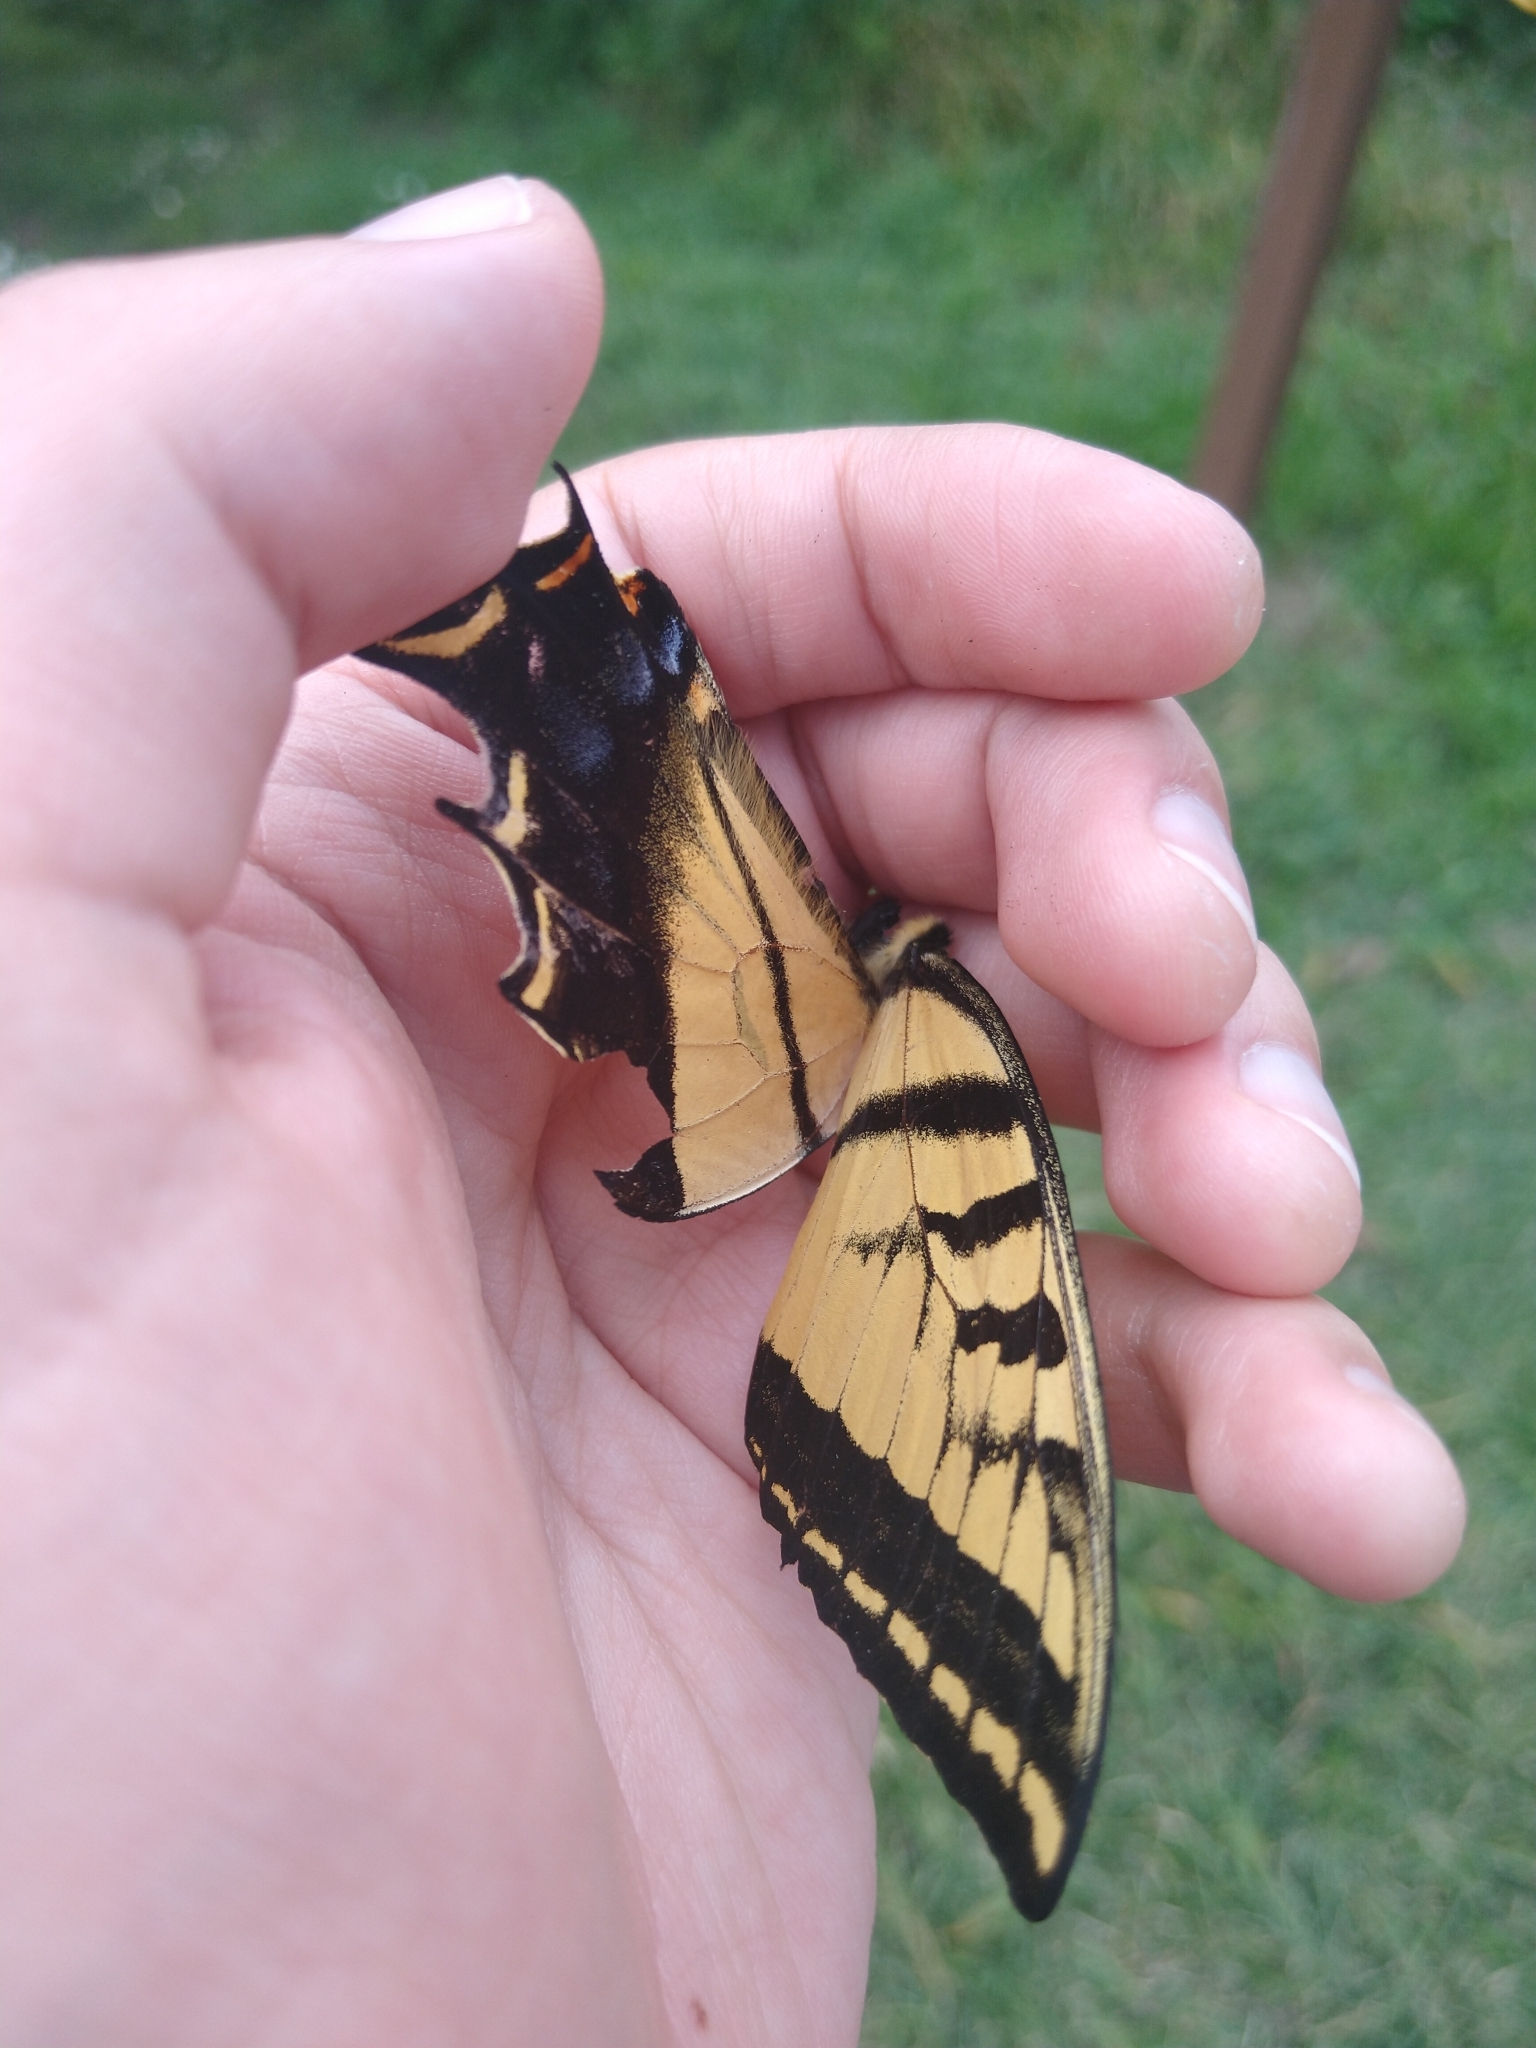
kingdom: Animalia
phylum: Arthropoda
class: Insecta
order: Lepidoptera
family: Papilionidae
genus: Papilio
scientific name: Papilio multicaudata
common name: Two-tailed tiger swallowtail
